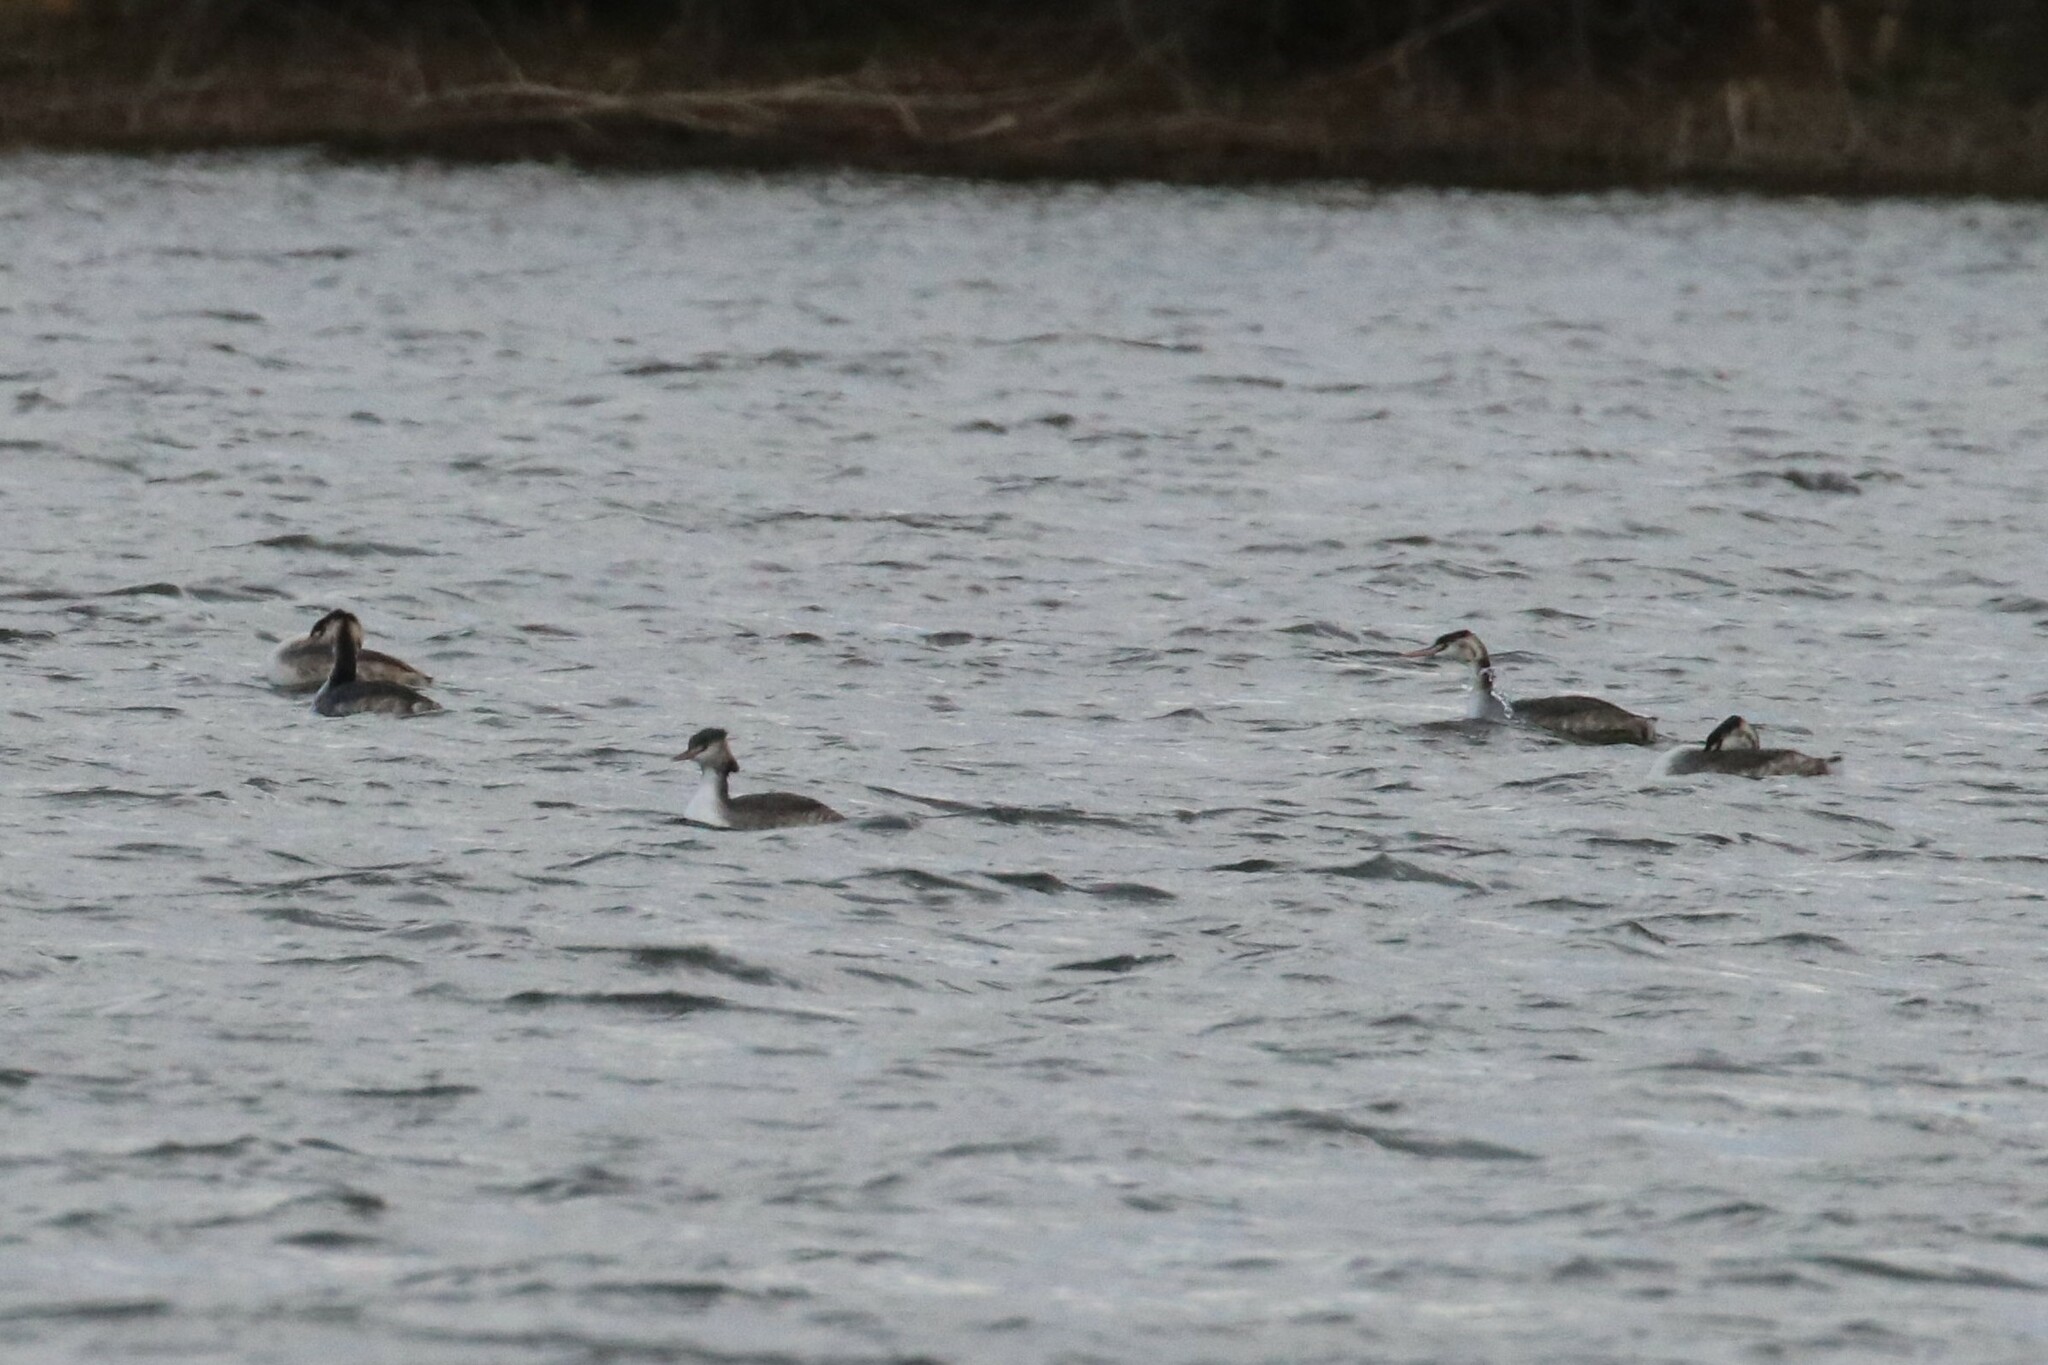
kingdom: Animalia
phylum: Chordata
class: Aves
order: Podicipediformes
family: Podicipedidae
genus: Podiceps
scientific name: Podiceps cristatus
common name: Great crested grebe
